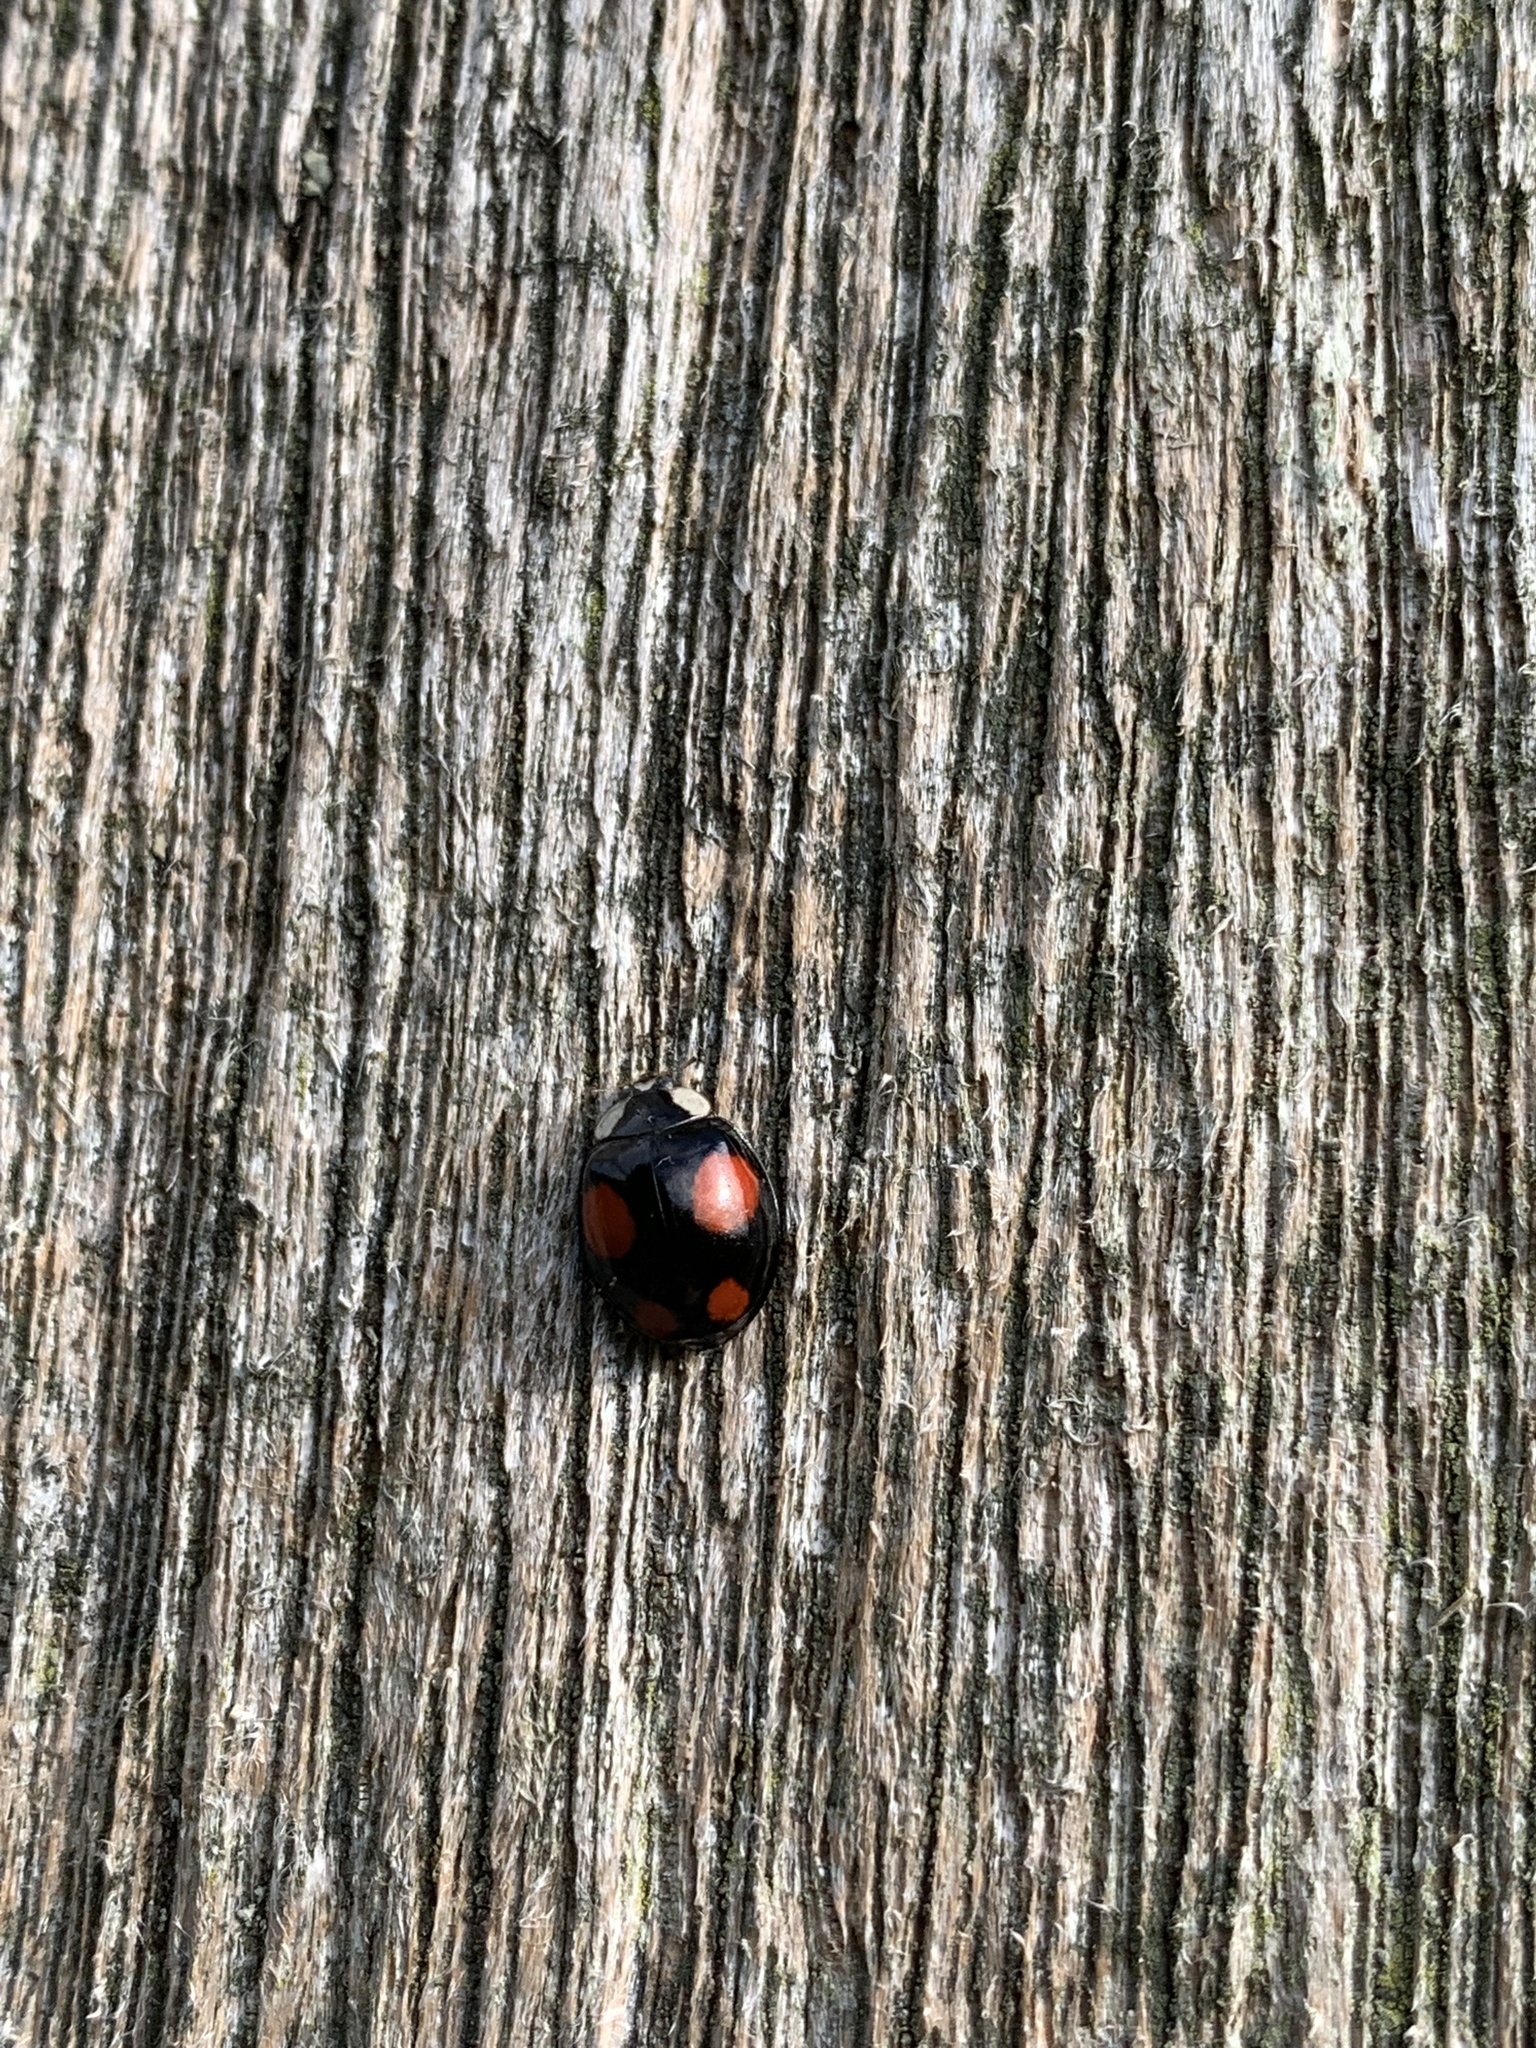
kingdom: Animalia
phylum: Arthropoda
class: Insecta
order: Coleoptera
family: Coccinellidae
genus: Harmonia
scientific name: Harmonia axyridis
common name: Harlequin ladybird
